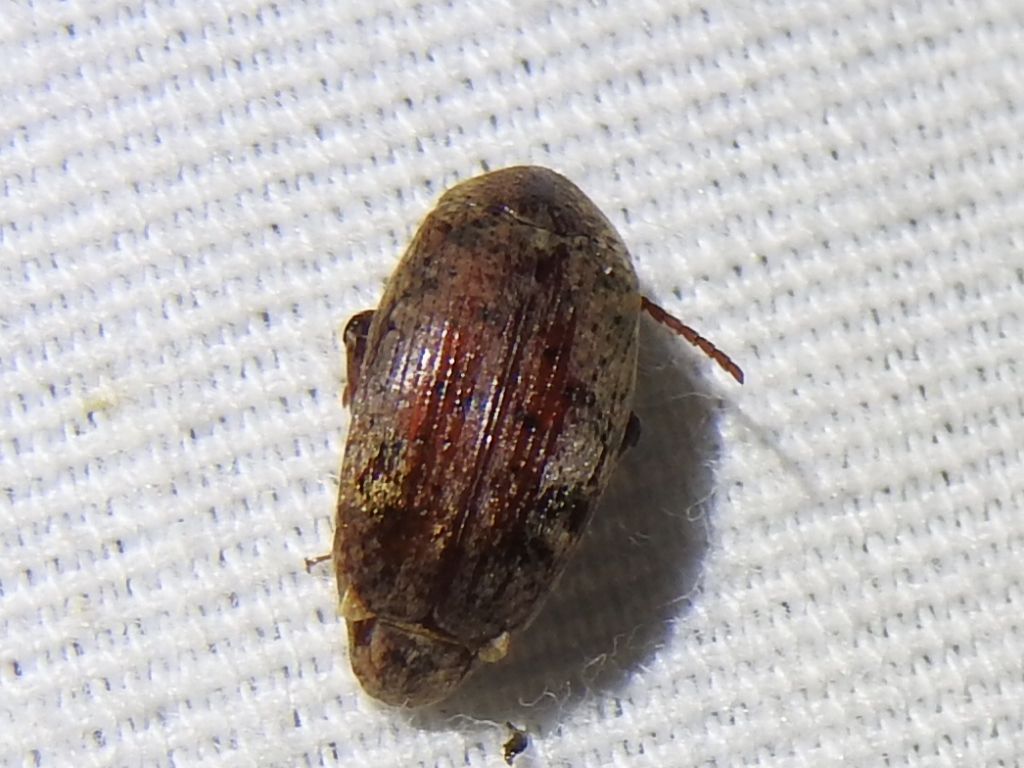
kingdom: Animalia
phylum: Arthropoda
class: Insecta
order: Coleoptera
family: Chrysomelidae
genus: Amblycerus
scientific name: Amblycerus robiniae
